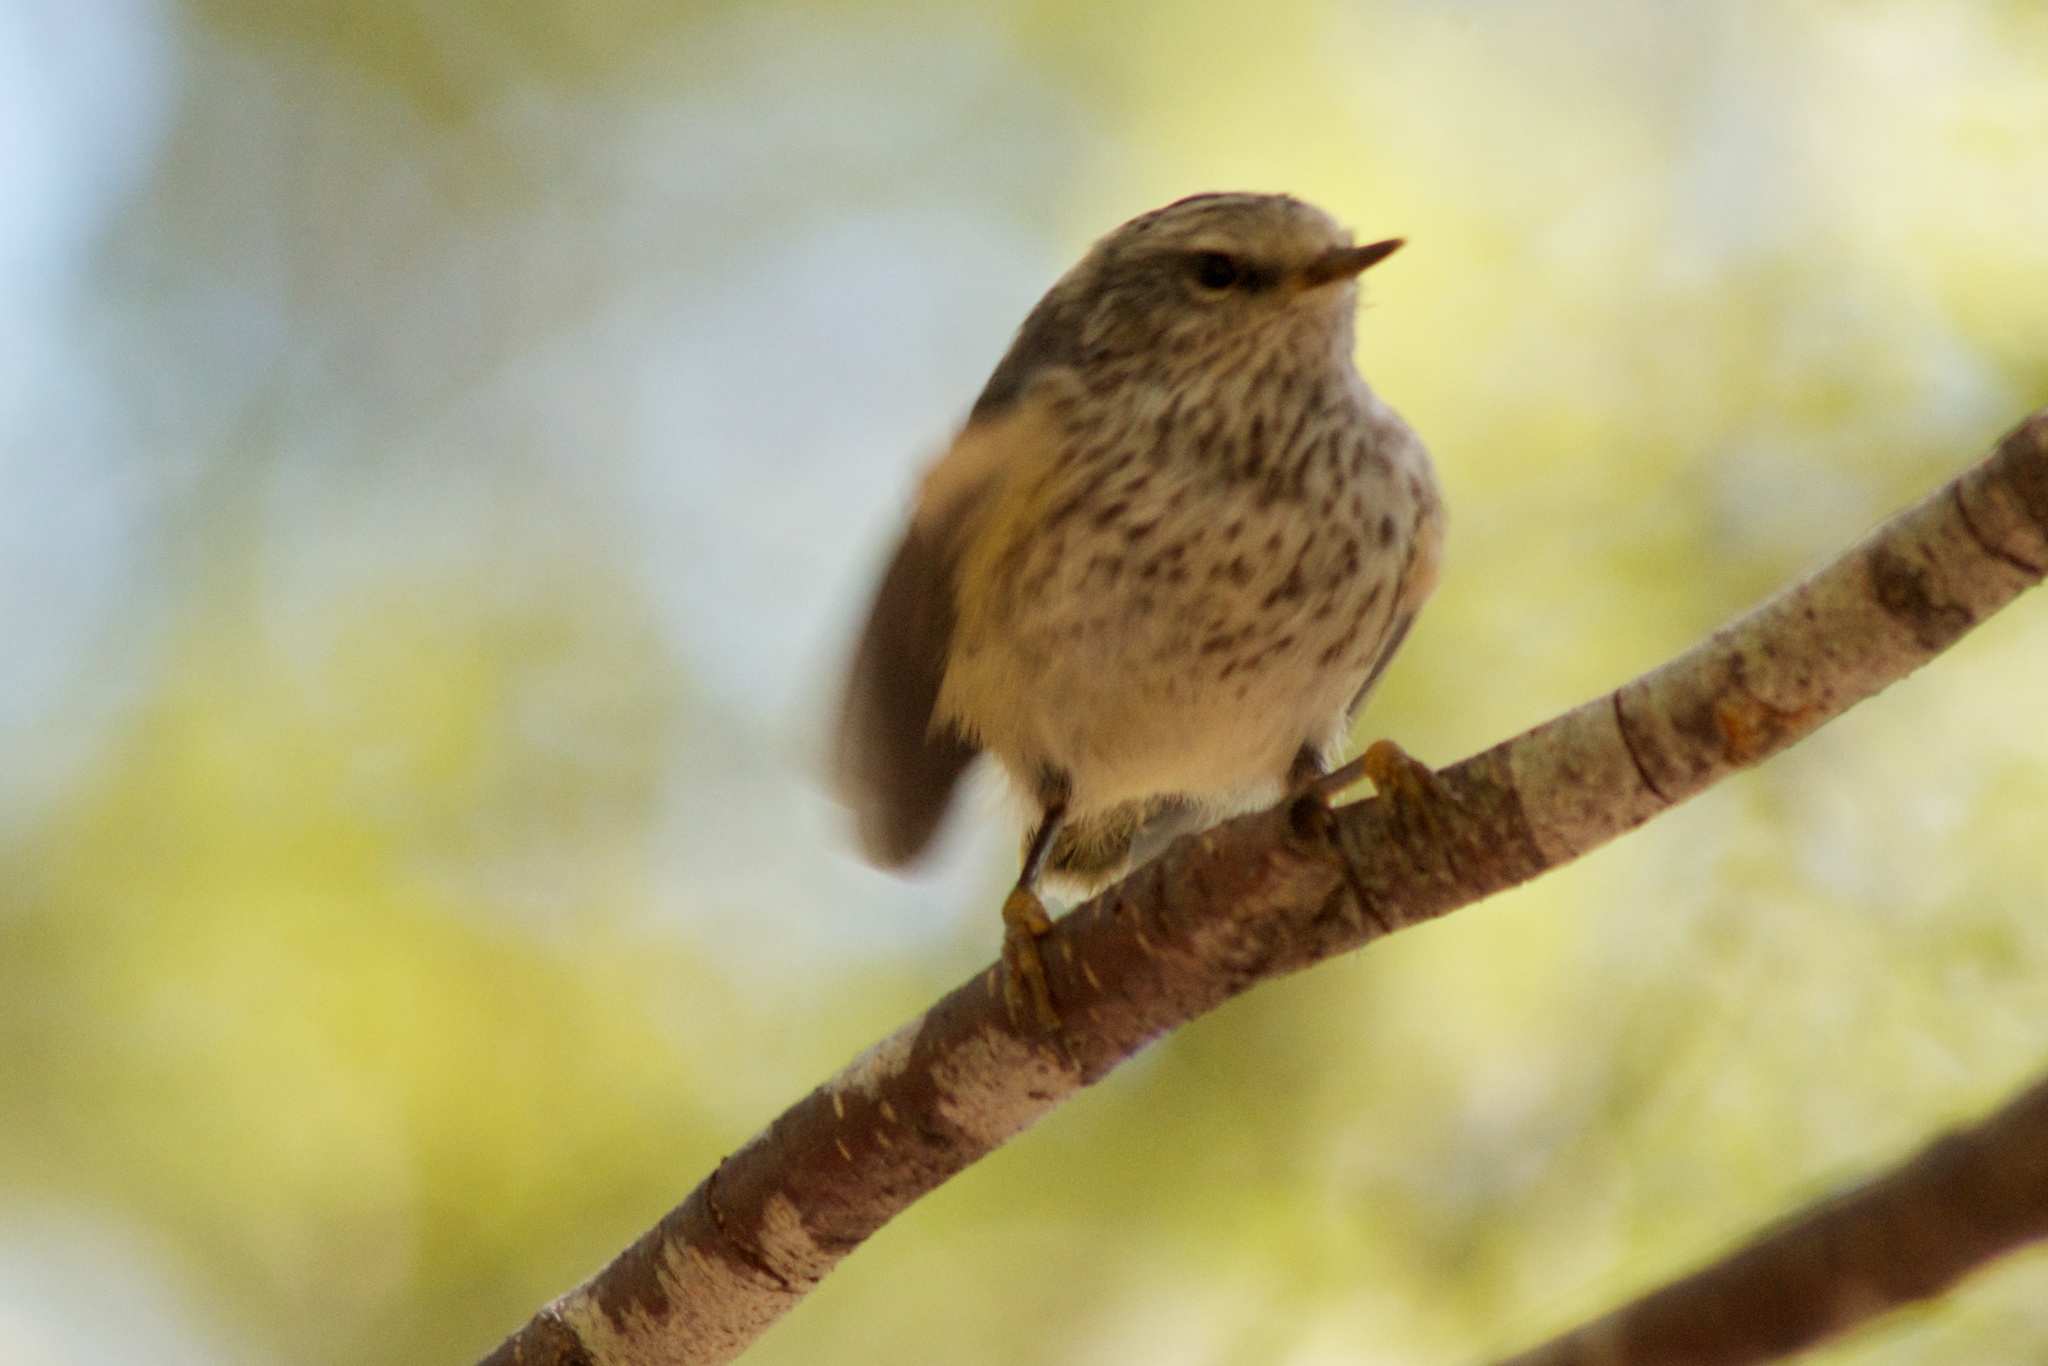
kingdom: Animalia
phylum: Chordata
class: Aves
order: Passeriformes
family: Acanthisittidae
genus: Acanthisitta
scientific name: Acanthisitta chloris
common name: Rifleman
